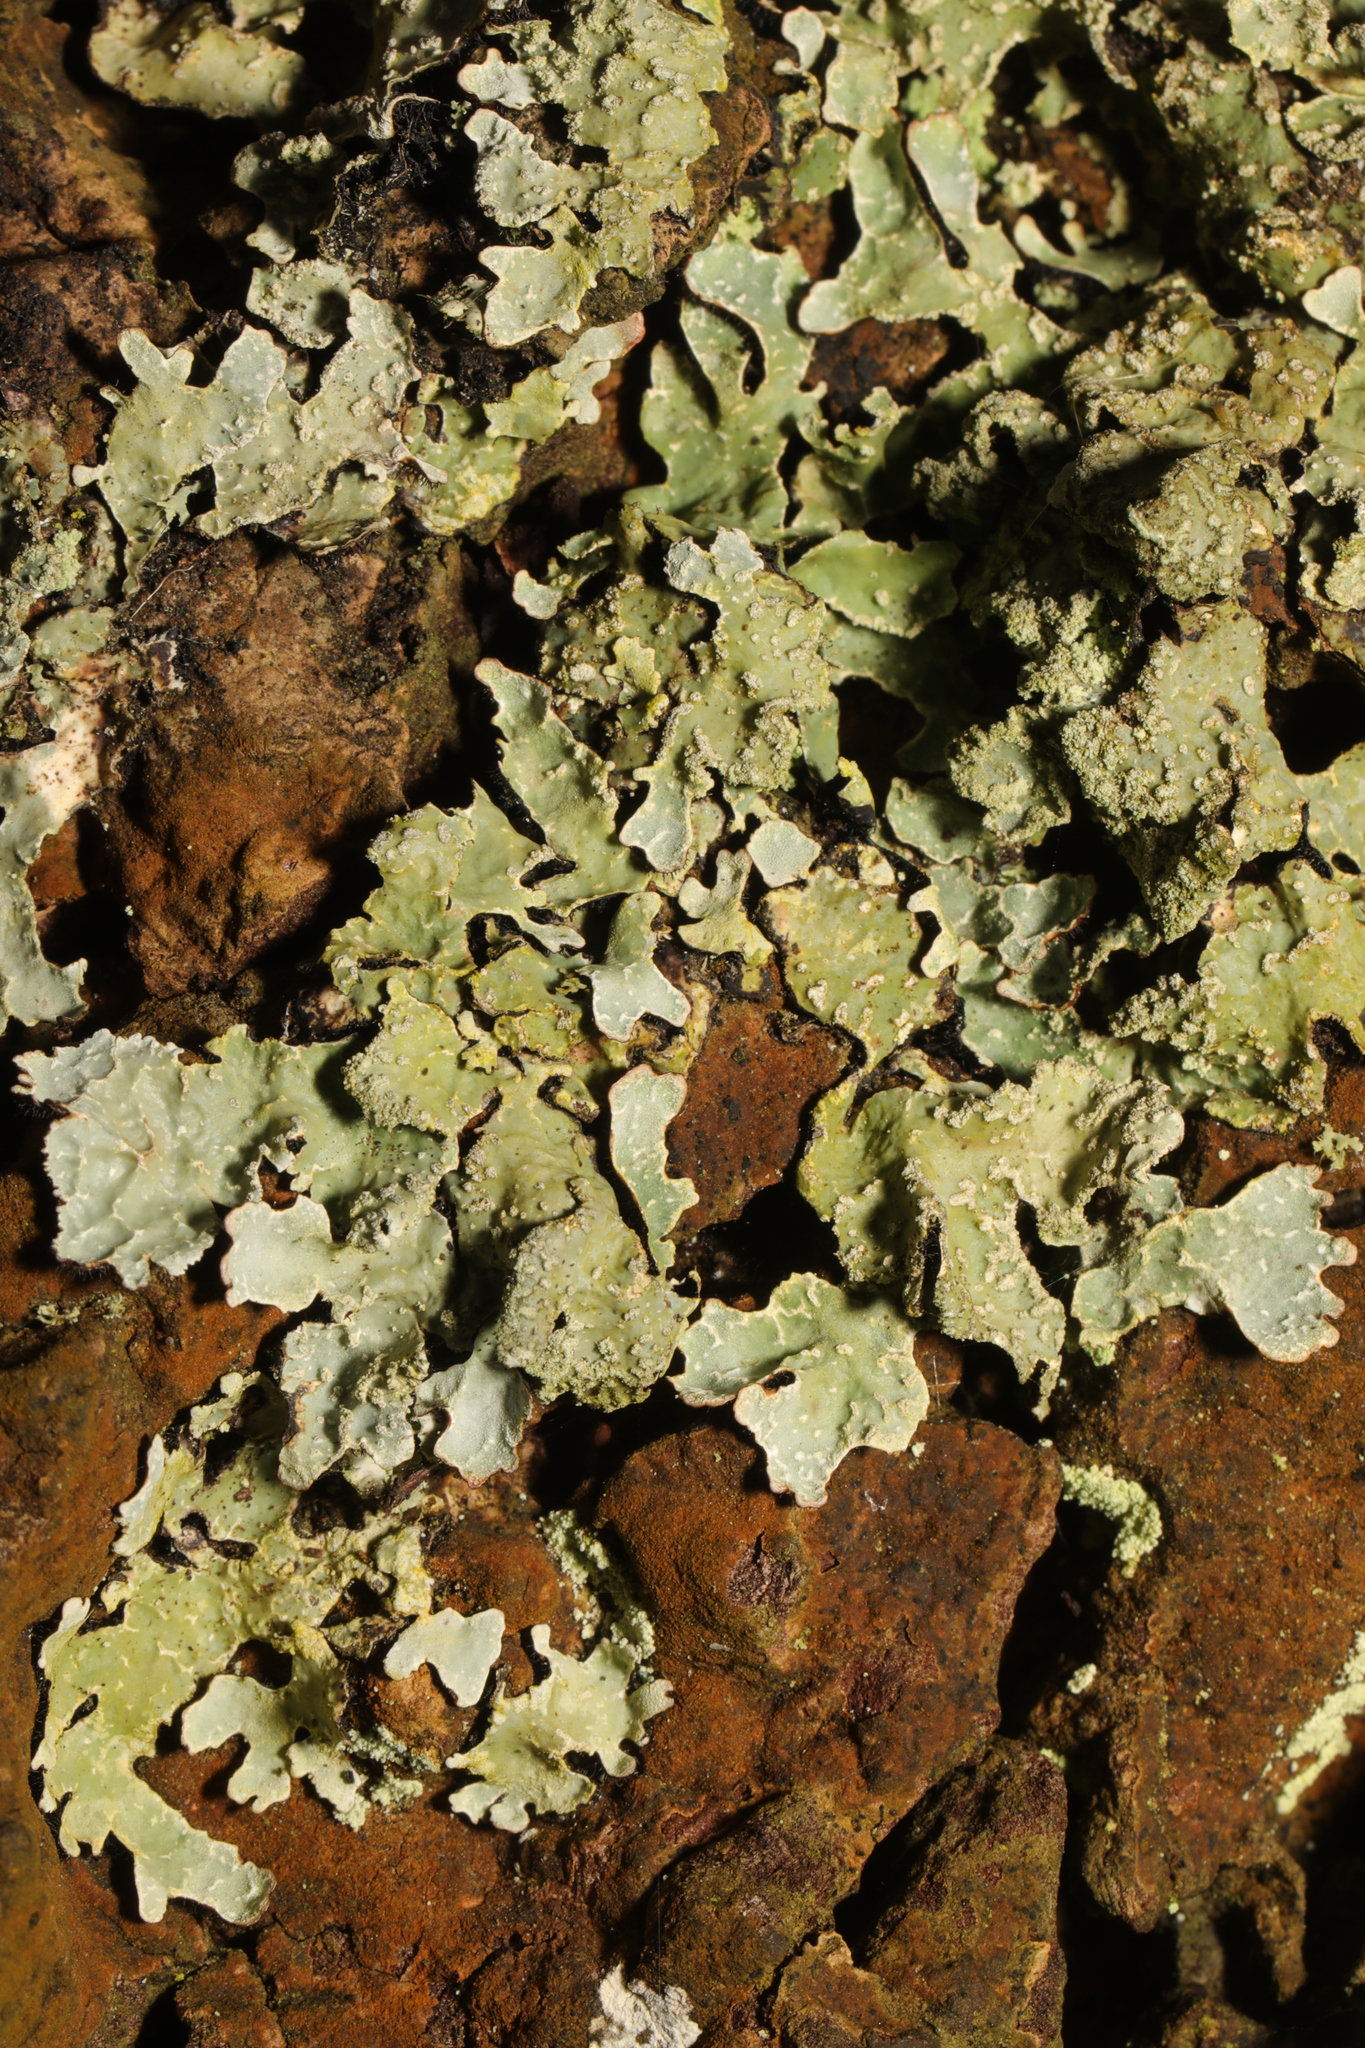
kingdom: Fungi
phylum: Ascomycota
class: Lecanoromycetes
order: Lecanorales
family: Parmeliaceae
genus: Parmelia
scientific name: Parmelia sulcata
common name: Netted shield lichen
